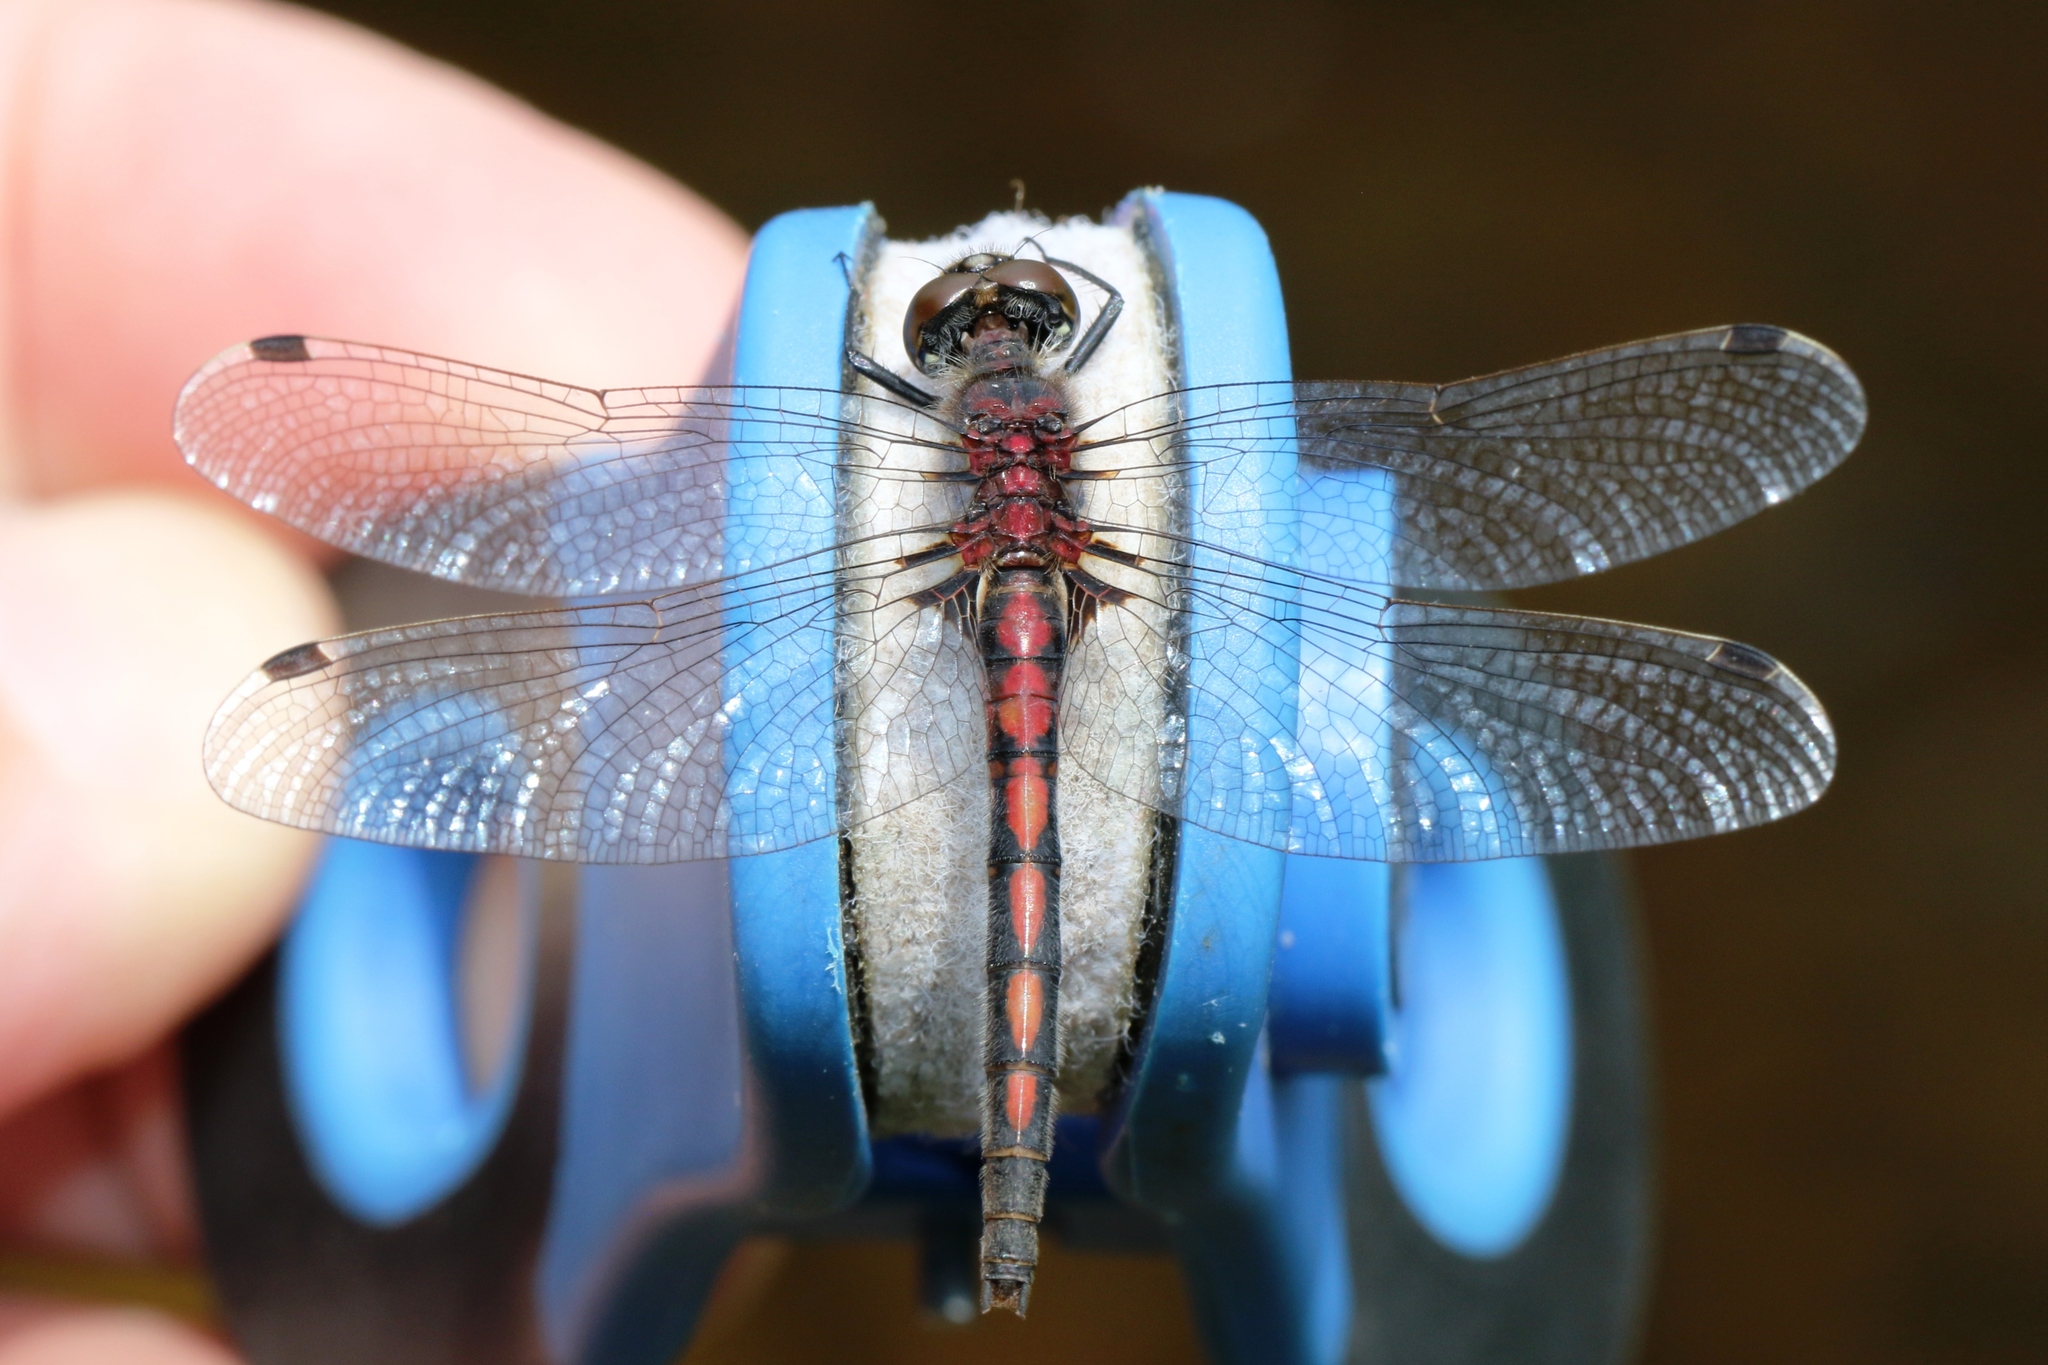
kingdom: Animalia
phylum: Arthropoda
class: Insecta
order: Odonata
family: Libellulidae
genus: Leucorrhinia
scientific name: Leucorrhinia hudsonica
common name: Hudsonian whiteface
